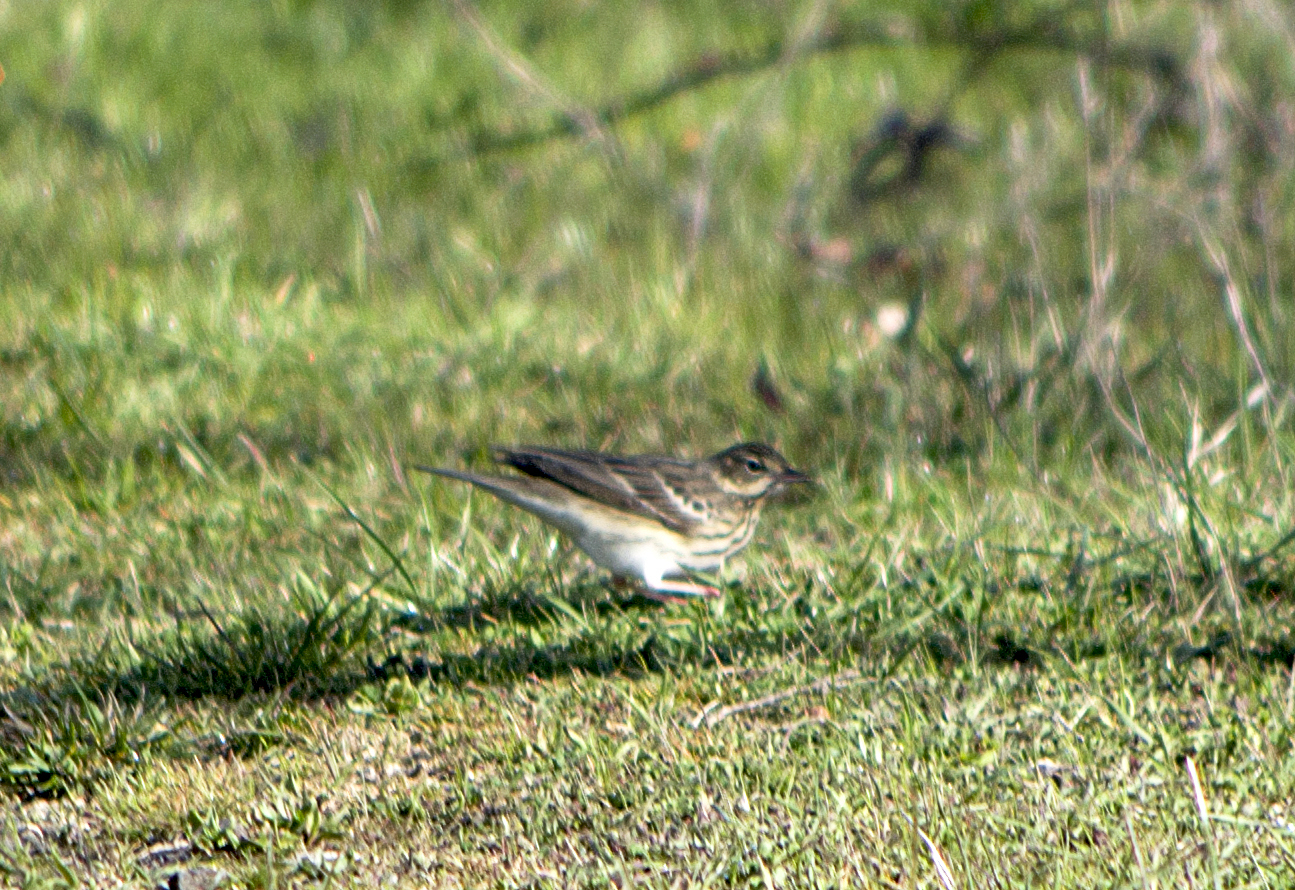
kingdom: Animalia
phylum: Chordata
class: Aves
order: Passeriformes
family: Motacillidae
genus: Anthus
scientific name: Anthus trivialis
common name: Tree pipit
